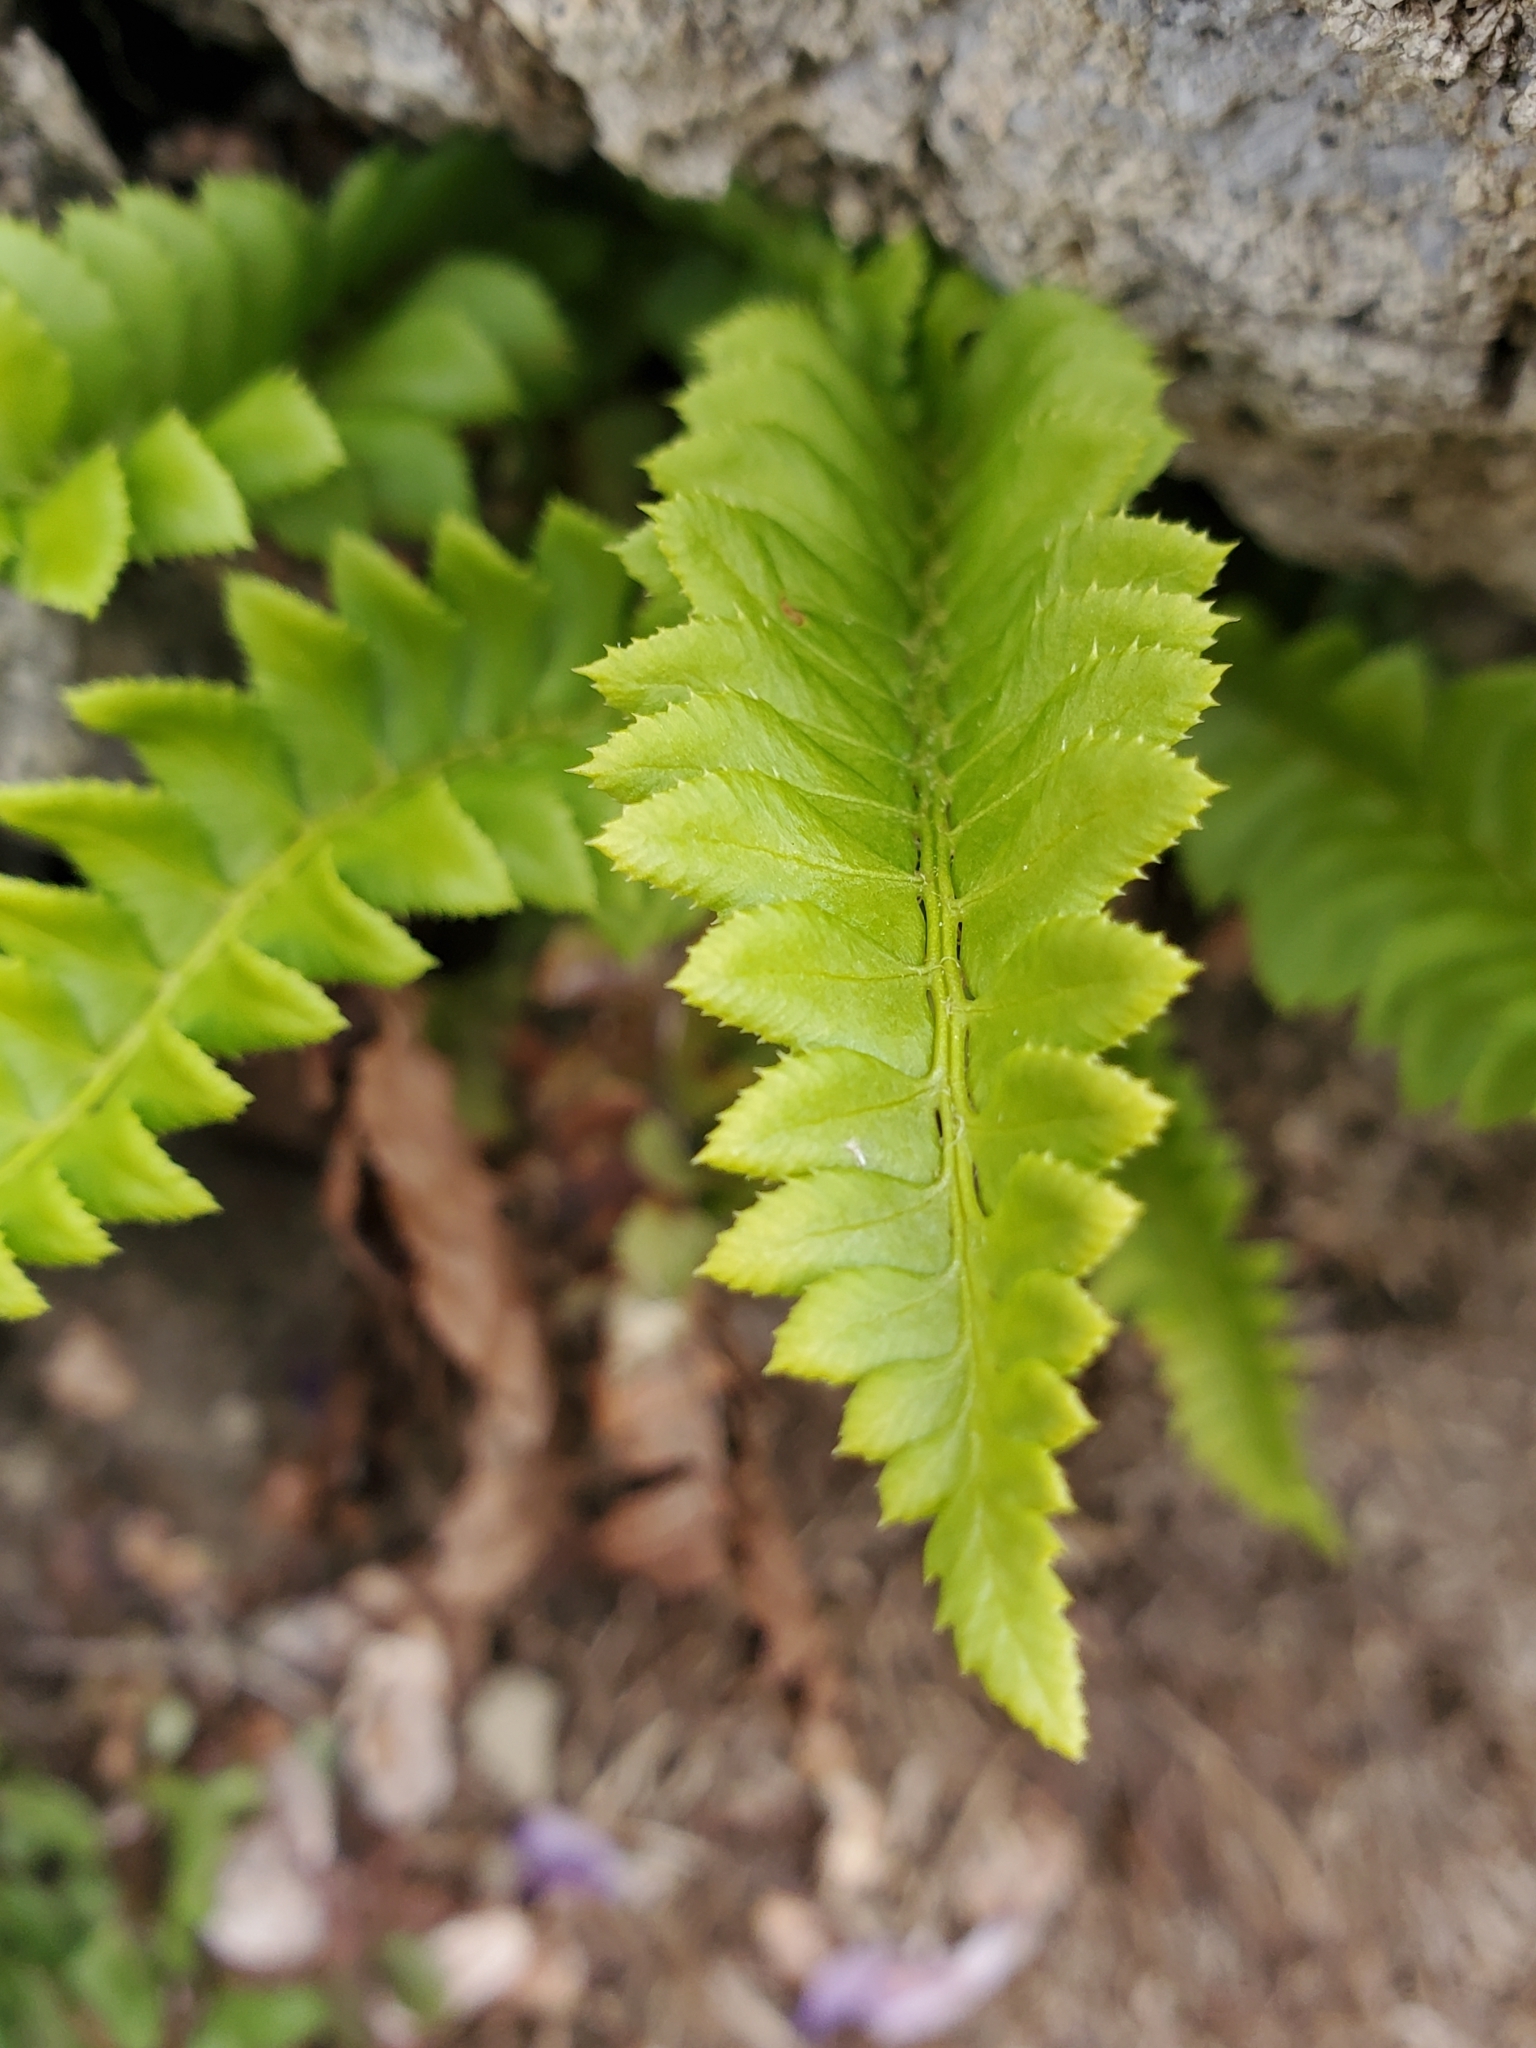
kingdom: Plantae
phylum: Tracheophyta
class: Polypodiopsida
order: Polypodiales
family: Dryopteridaceae
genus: Polystichum
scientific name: Polystichum lonchitis
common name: Holly fern
